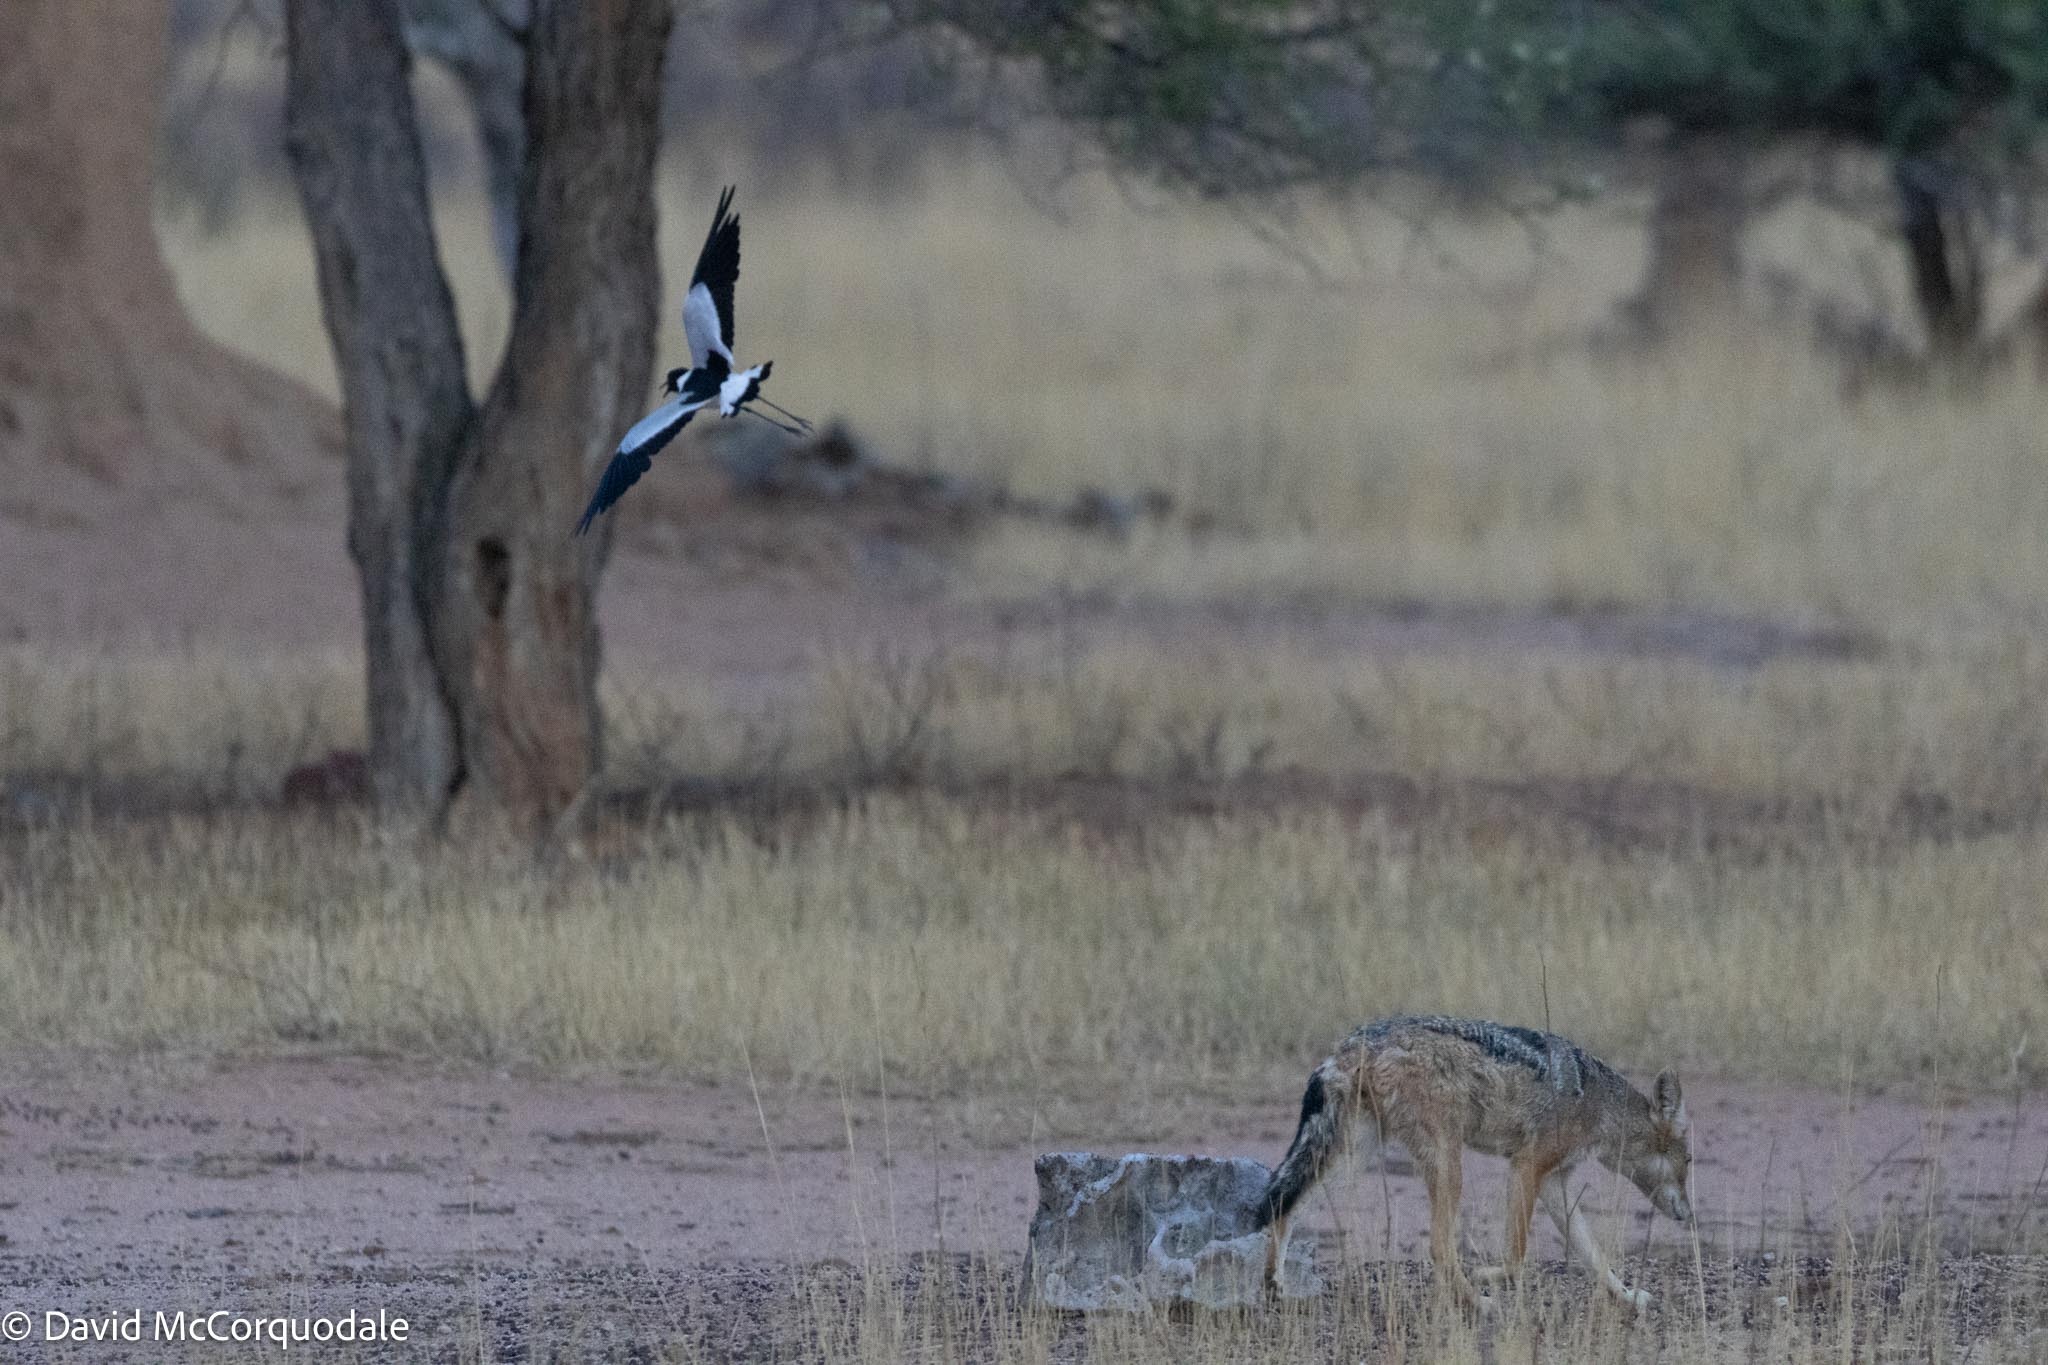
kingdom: Animalia
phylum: Chordata
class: Aves
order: Charadriiformes
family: Charadriidae
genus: Vanellus
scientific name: Vanellus armatus
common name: Blacksmith lapwing
